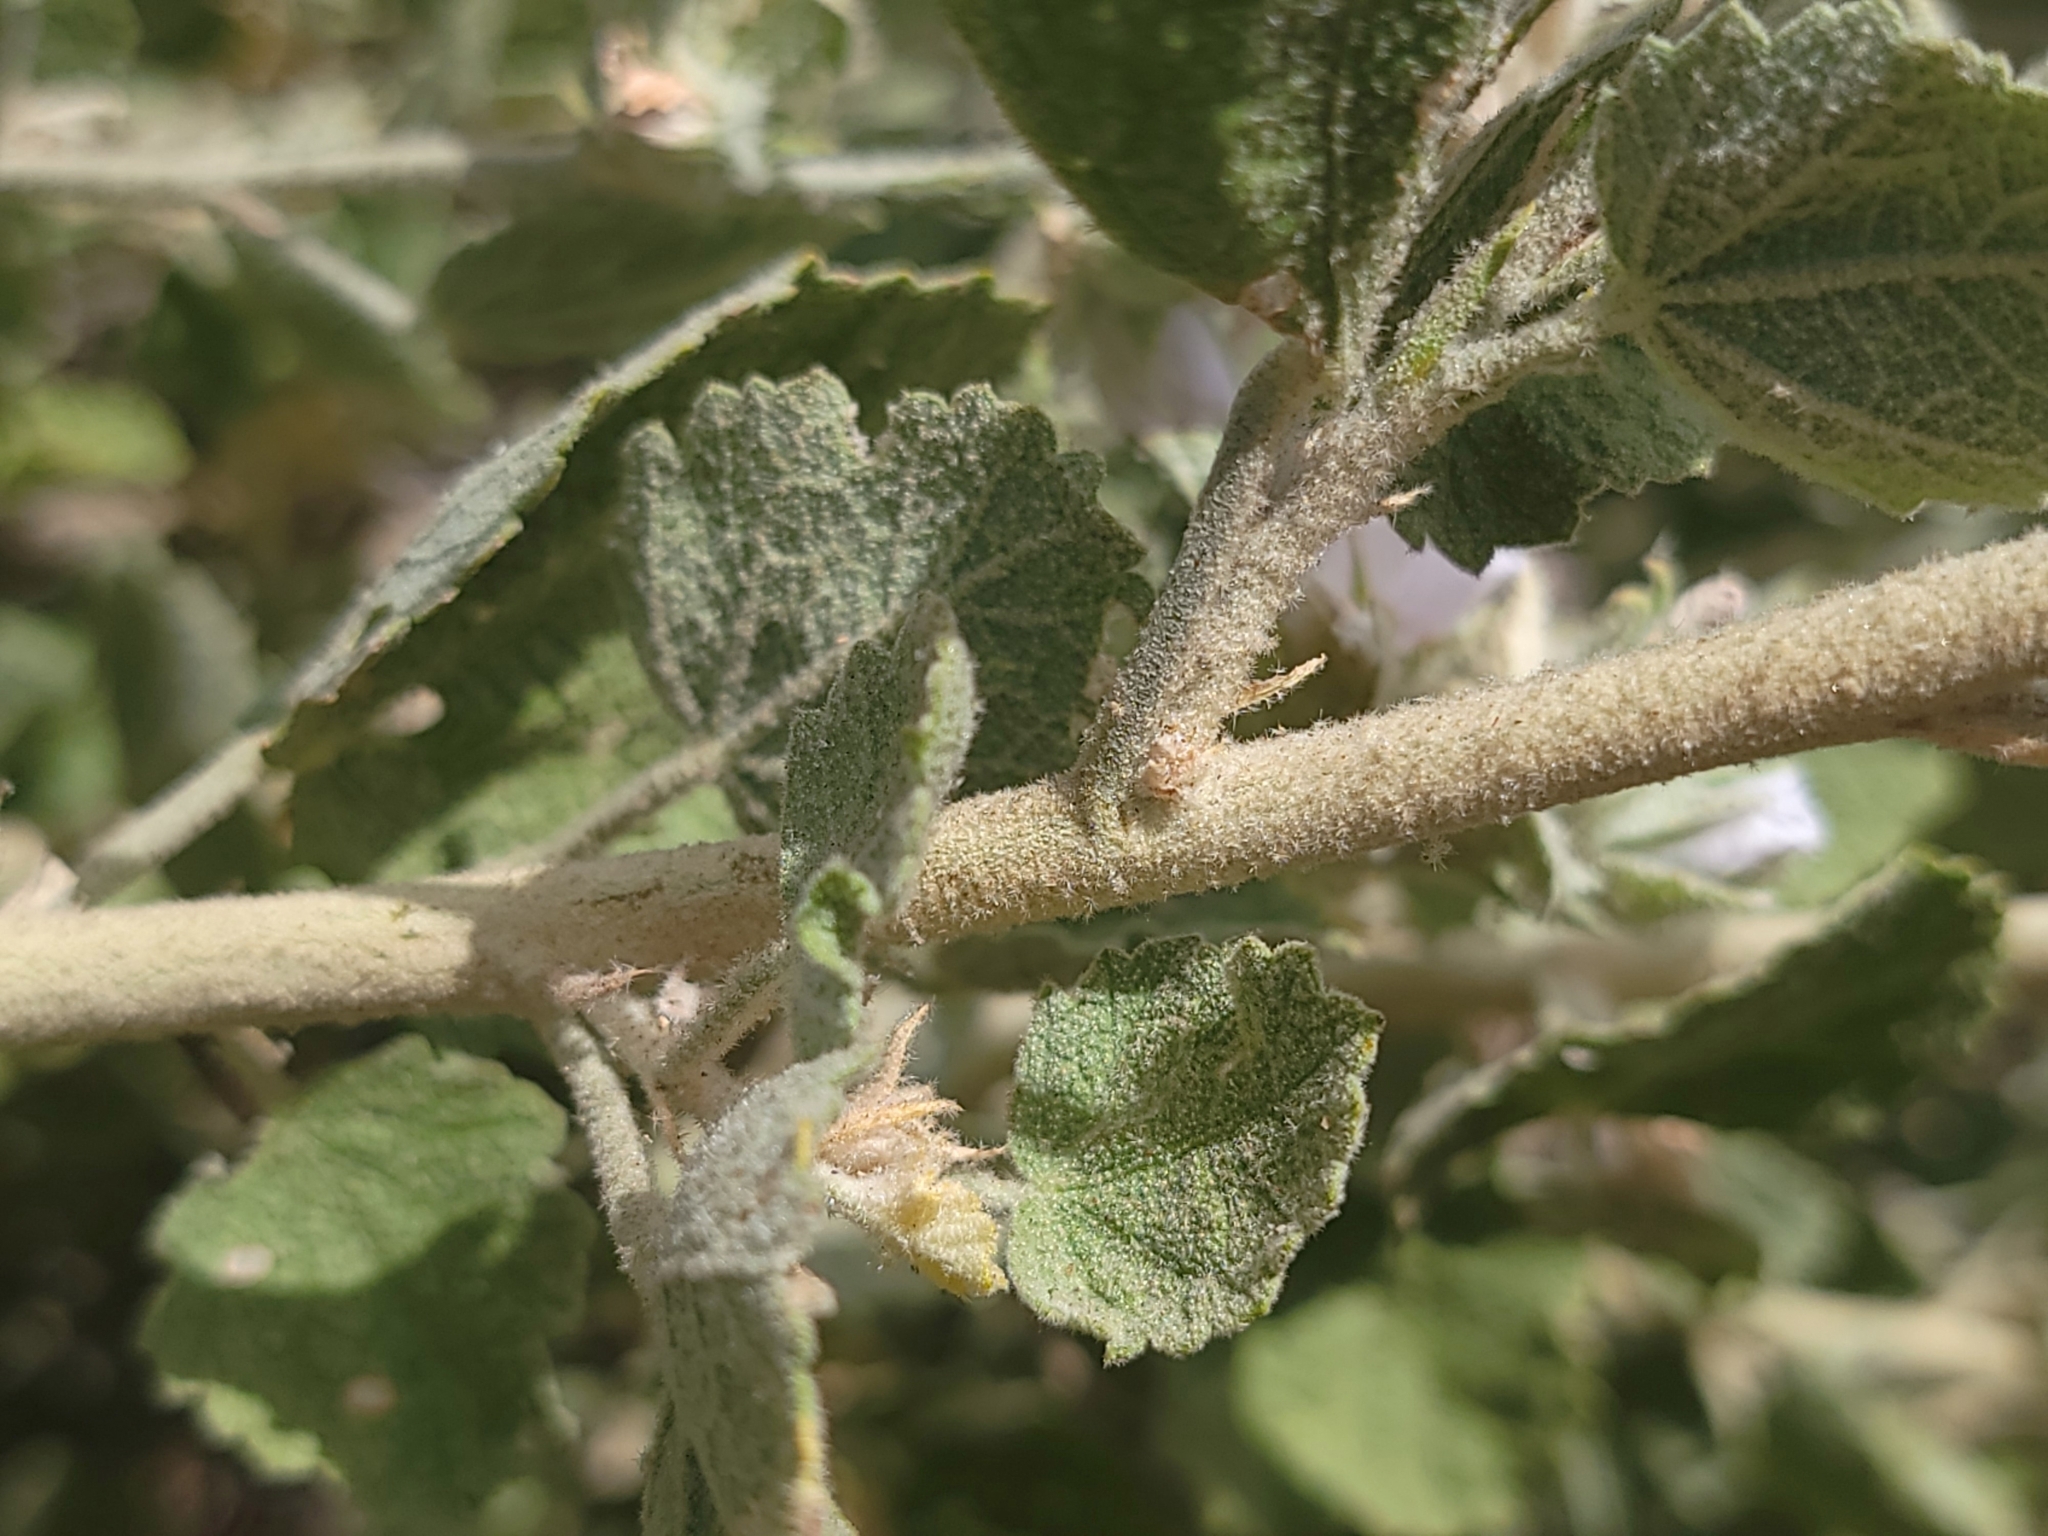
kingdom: Plantae
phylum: Tracheophyta
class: Magnoliopsida
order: Malvales
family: Malvaceae
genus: Malacothamnus
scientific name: Malacothamnus marrubioides
